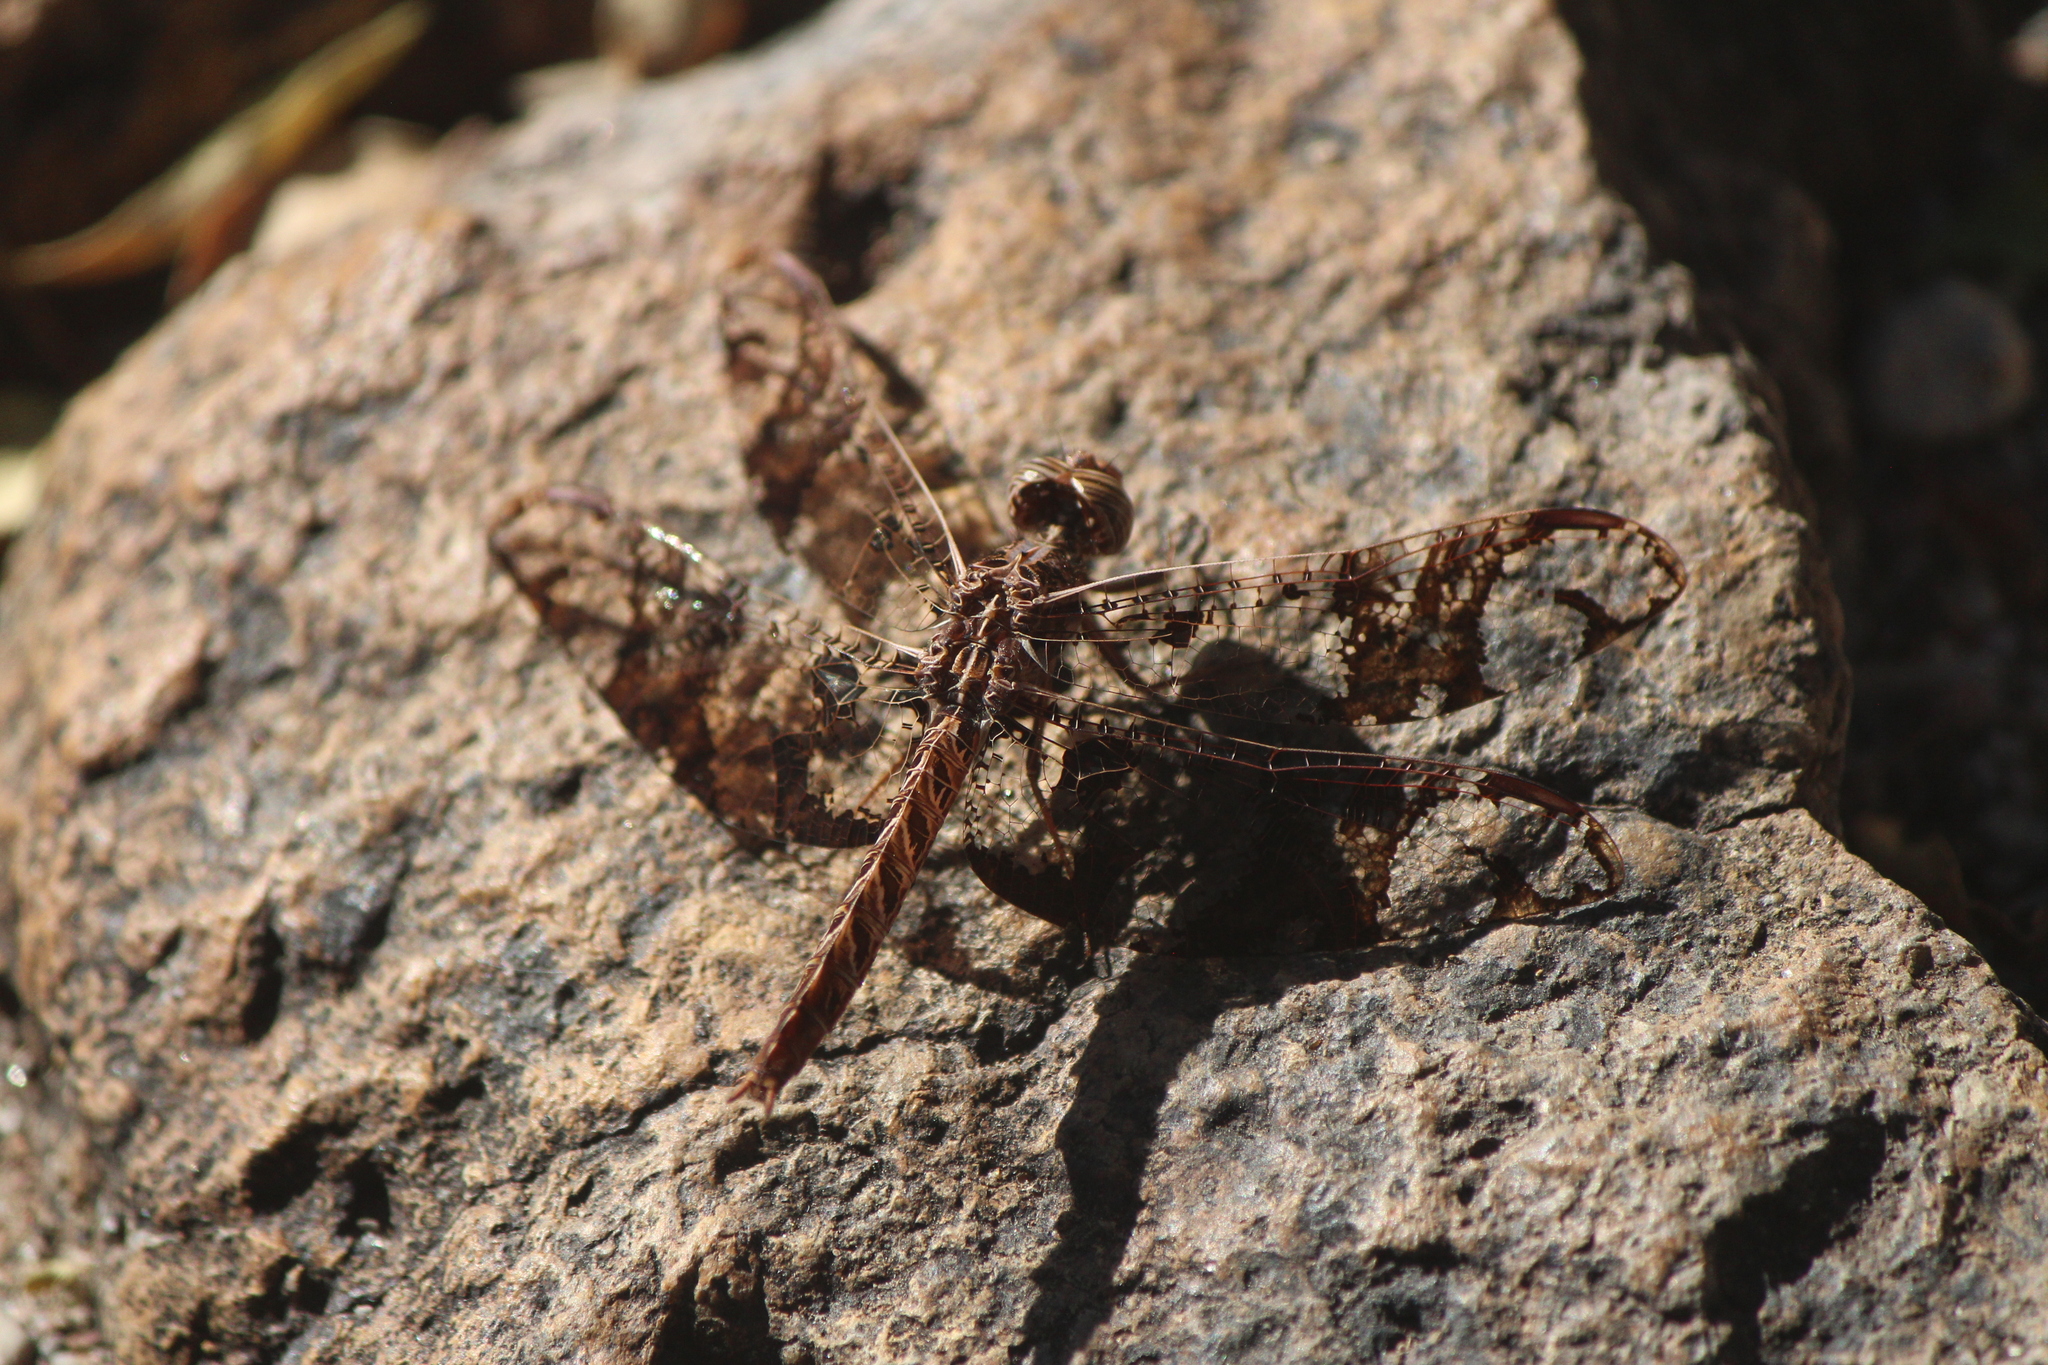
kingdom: Animalia
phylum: Arthropoda
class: Insecta
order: Odonata
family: Libellulidae
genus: Pseudoleon
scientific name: Pseudoleon superbus
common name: Filigree skimmer
